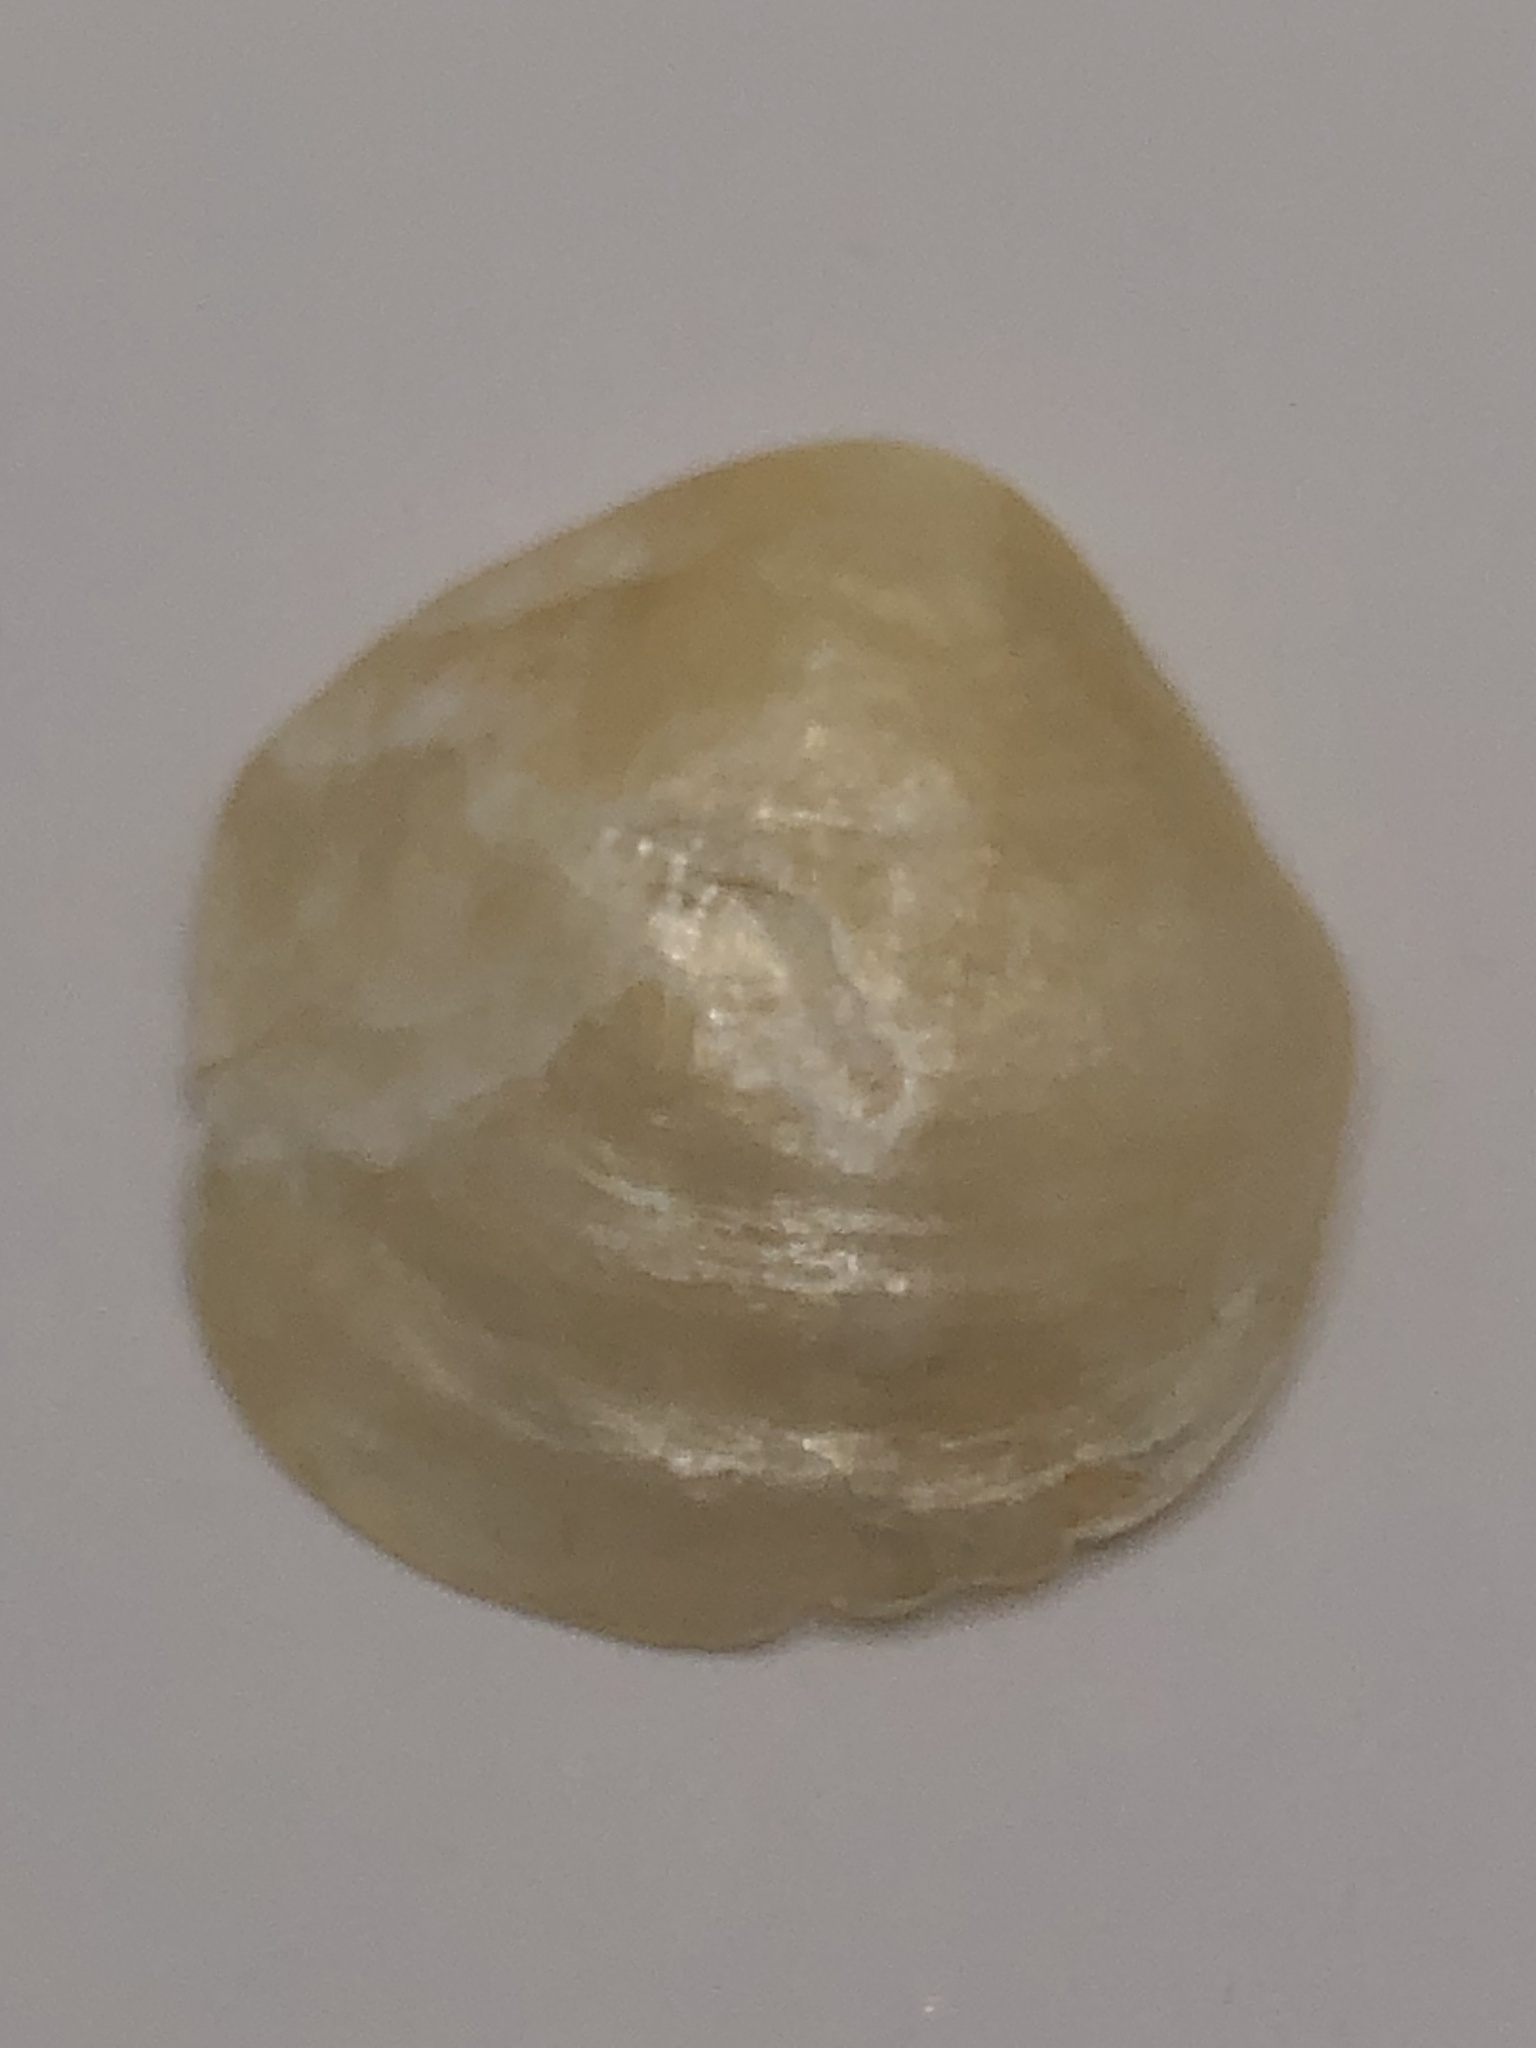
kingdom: Animalia
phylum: Mollusca
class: Bivalvia
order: Pectinida
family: Anomiidae
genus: Anomia
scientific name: Anomia simplex
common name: Common jingle shell
